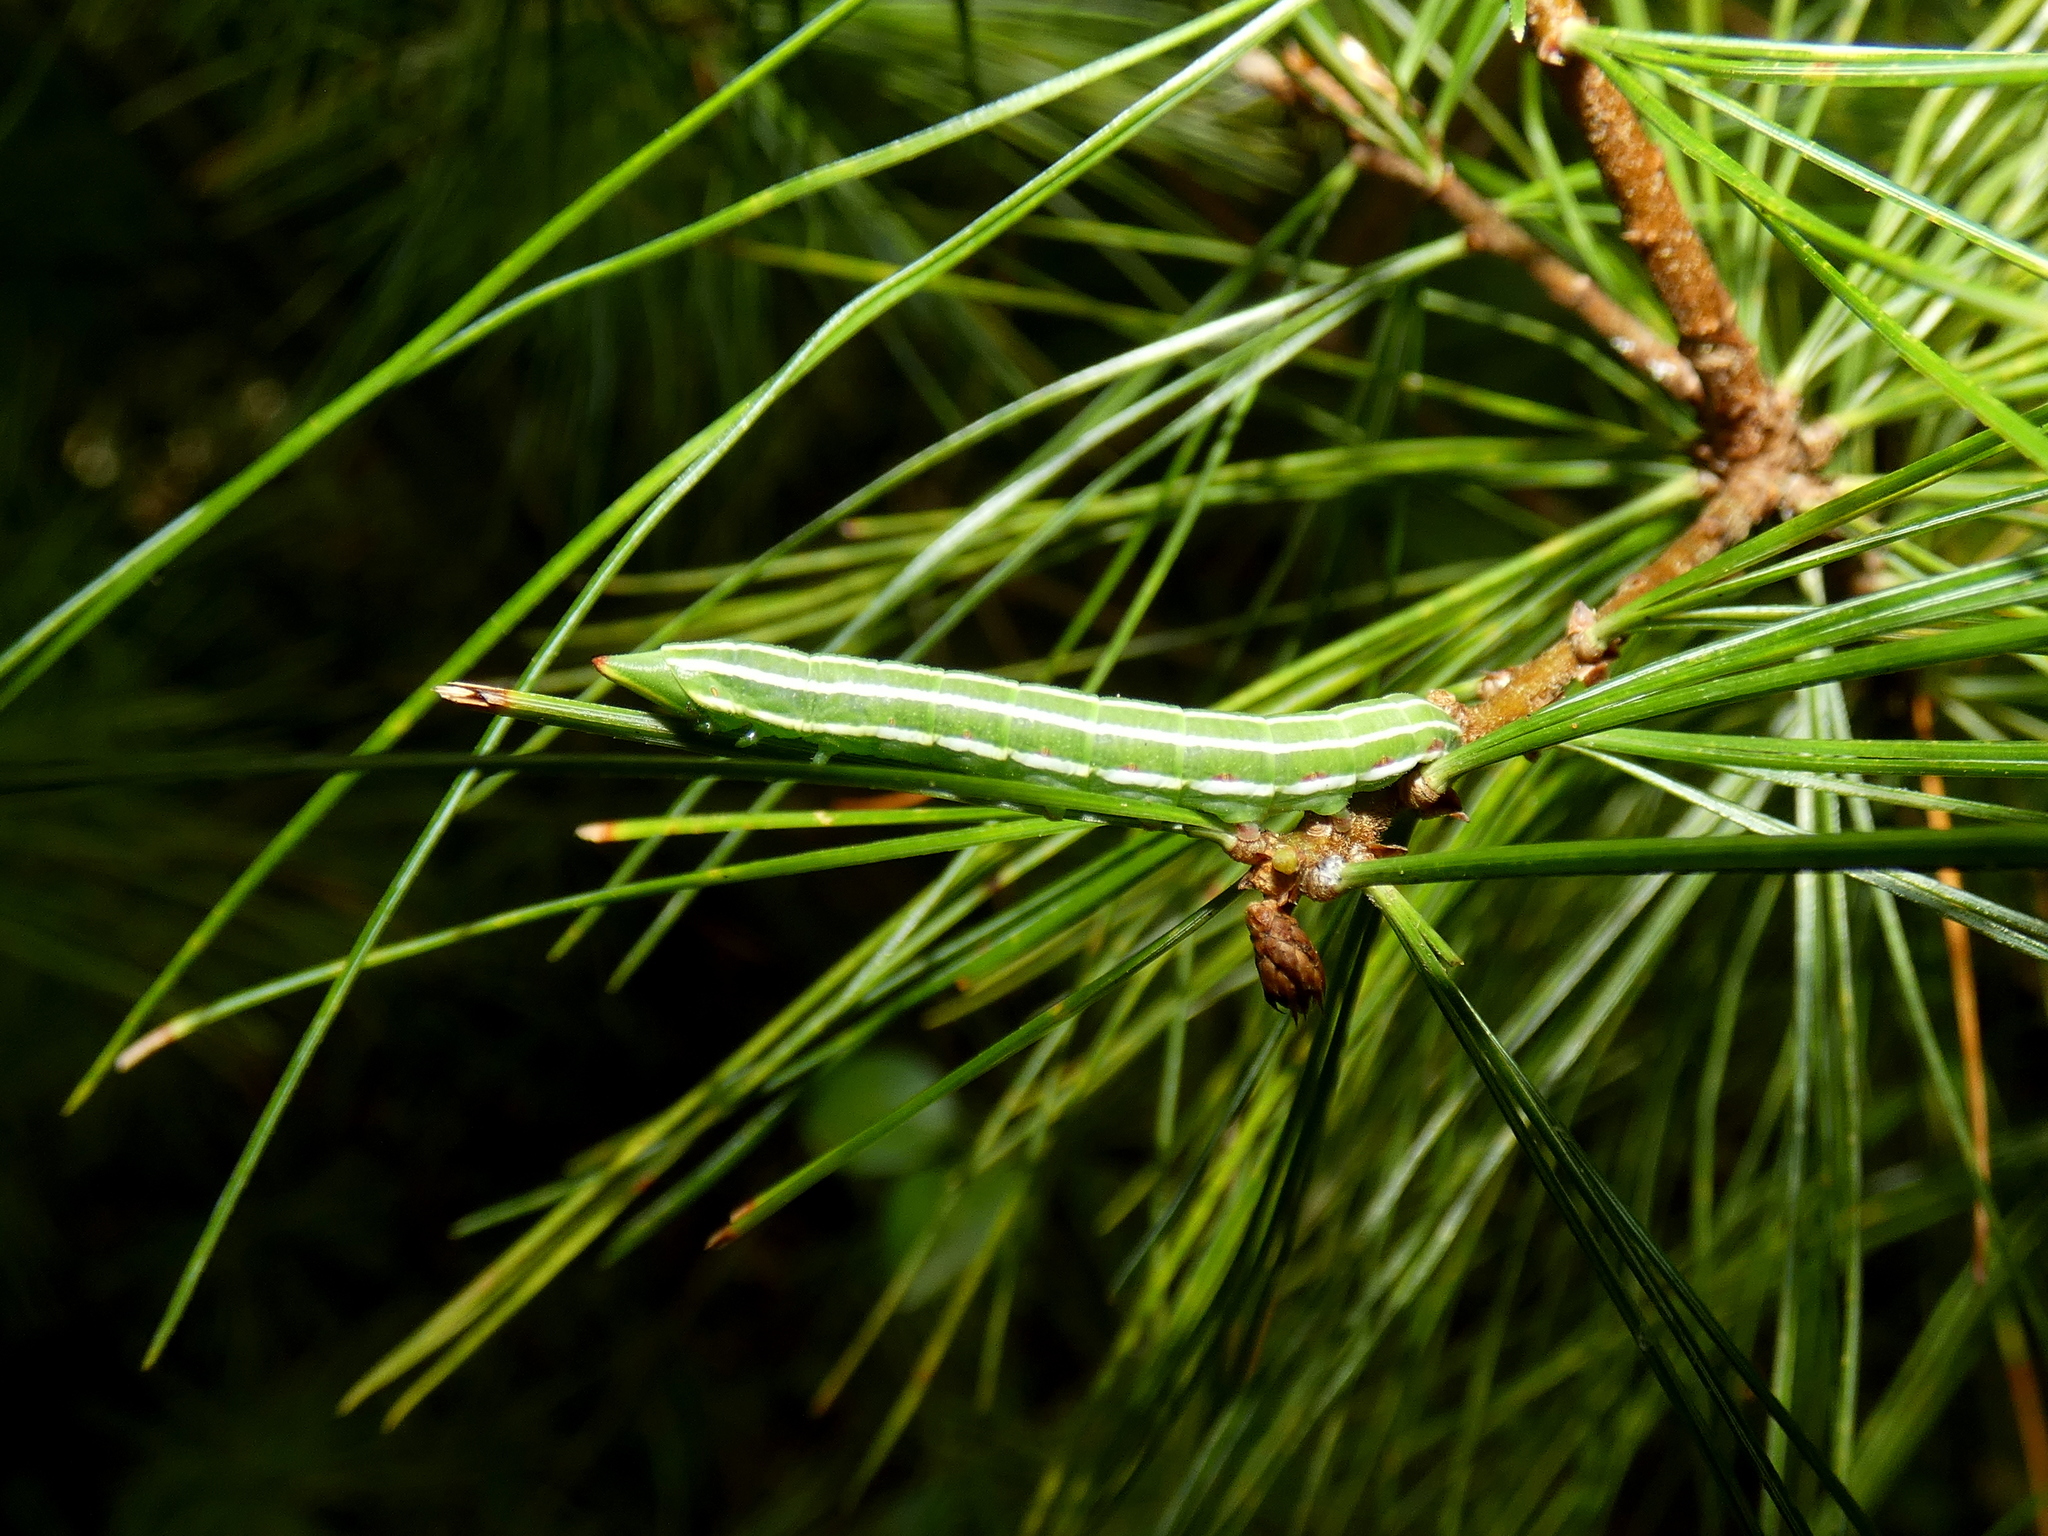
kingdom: Animalia
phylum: Arthropoda
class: Insecta
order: Lepidoptera
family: Sphingidae
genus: Lapara
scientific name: Lapara bombycoides
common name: Northern pine sphinx
